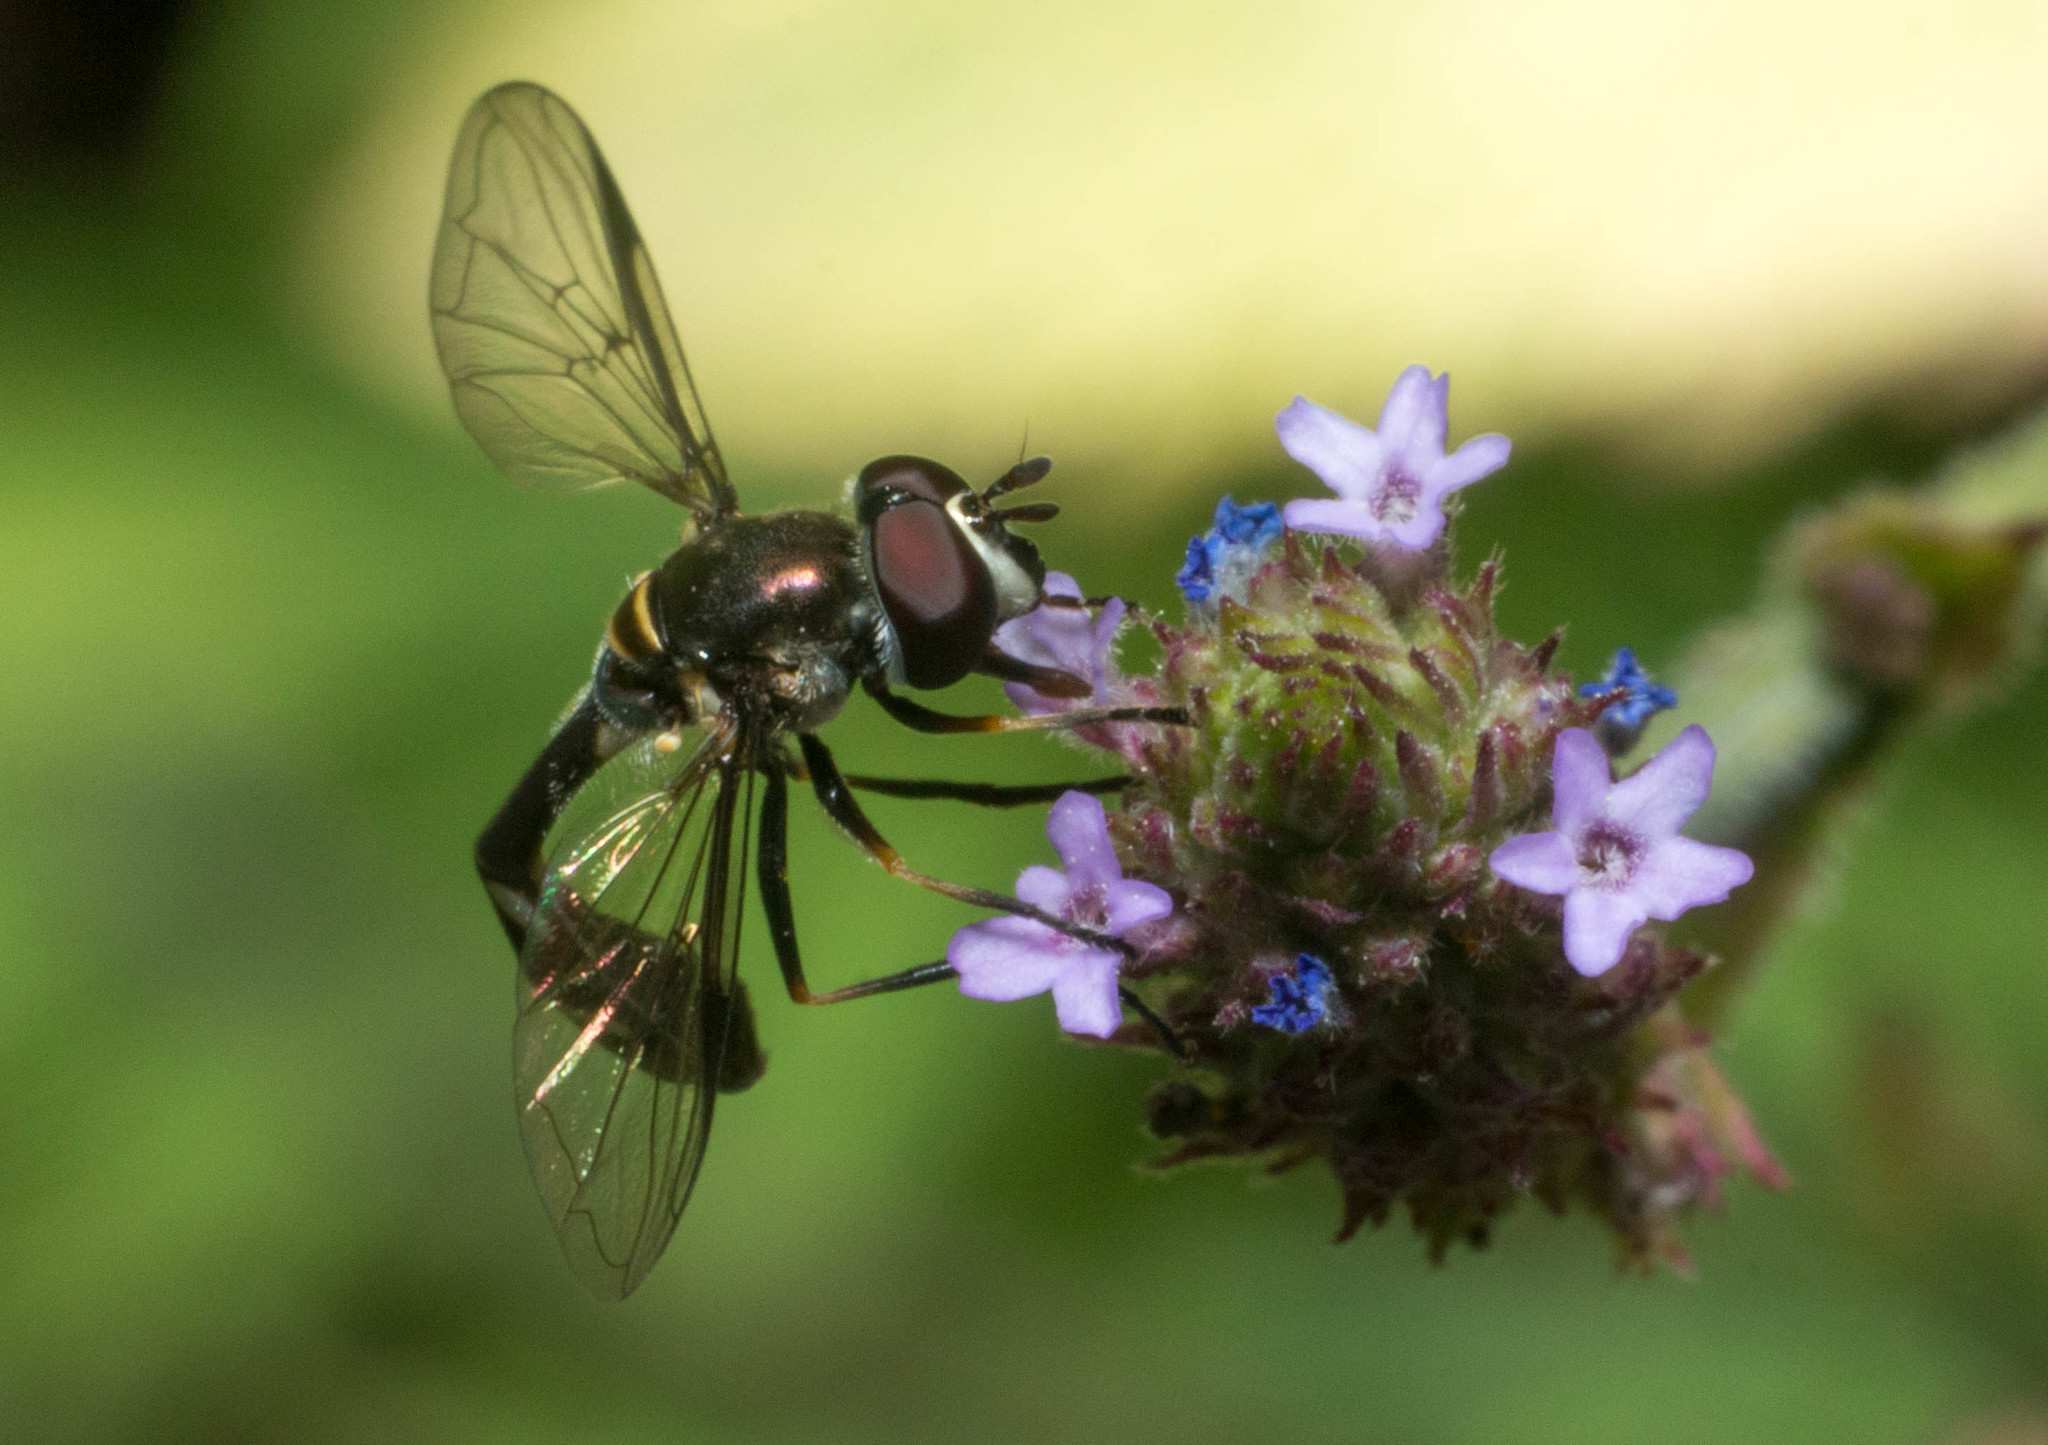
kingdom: Animalia
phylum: Arthropoda
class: Insecta
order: Diptera
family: Syrphidae
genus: Dioprosopa
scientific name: Dioprosopa clavatus
